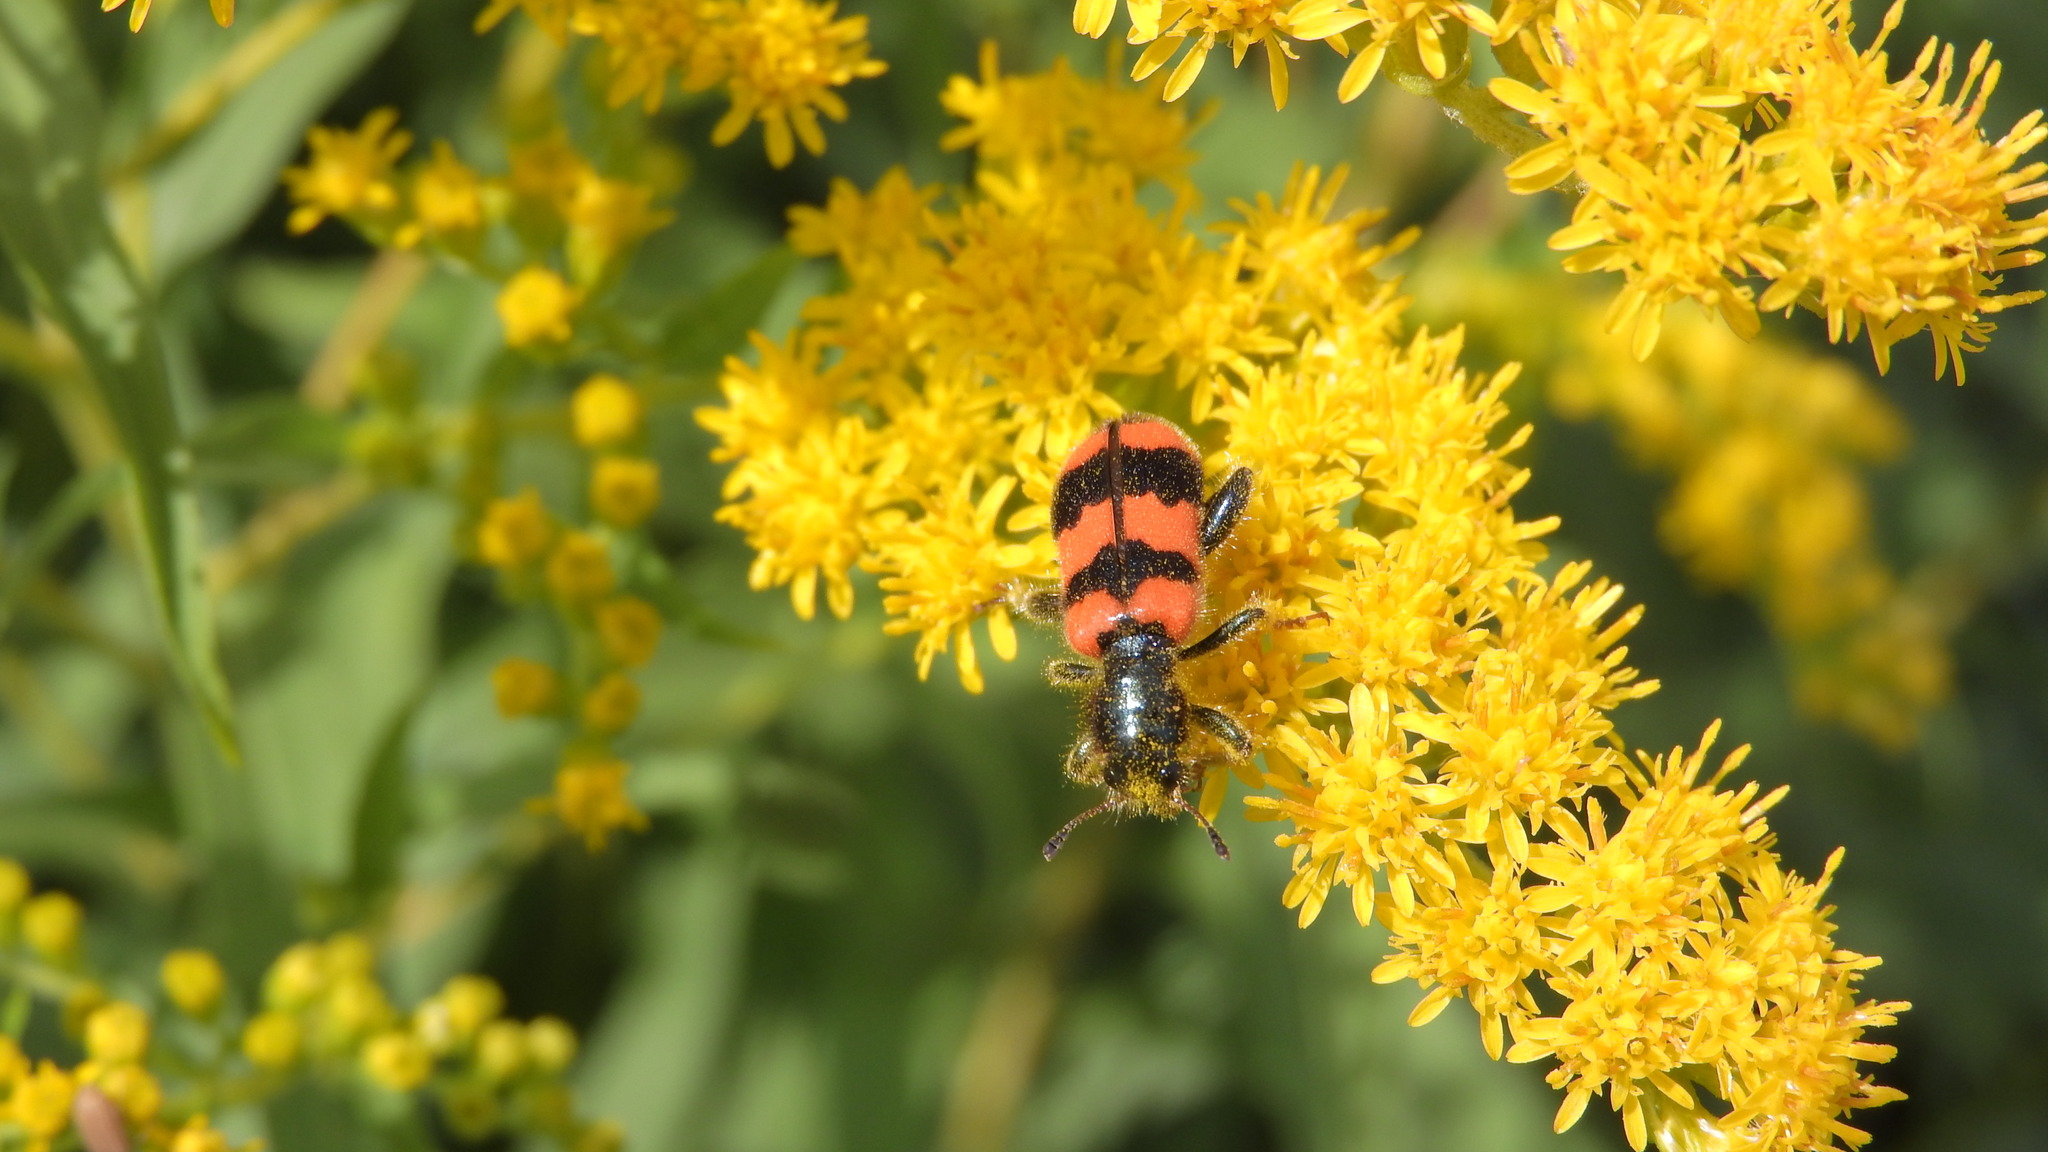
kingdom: Animalia
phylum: Arthropoda
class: Insecta
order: Coleoptera
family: Cleridae
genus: Trichodes
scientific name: Trichodes apiarius
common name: Bee-eating beetle
